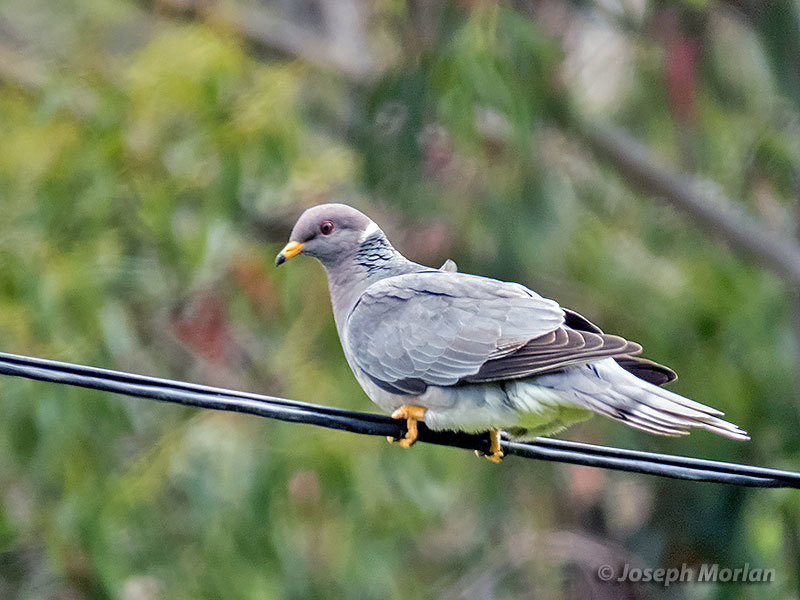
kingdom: Animalia
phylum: Chordata
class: Aves
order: Columbiformes
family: Columbidae
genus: Patagioenas
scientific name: Patagioenas fasciata
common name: Band-tailed pigeon
